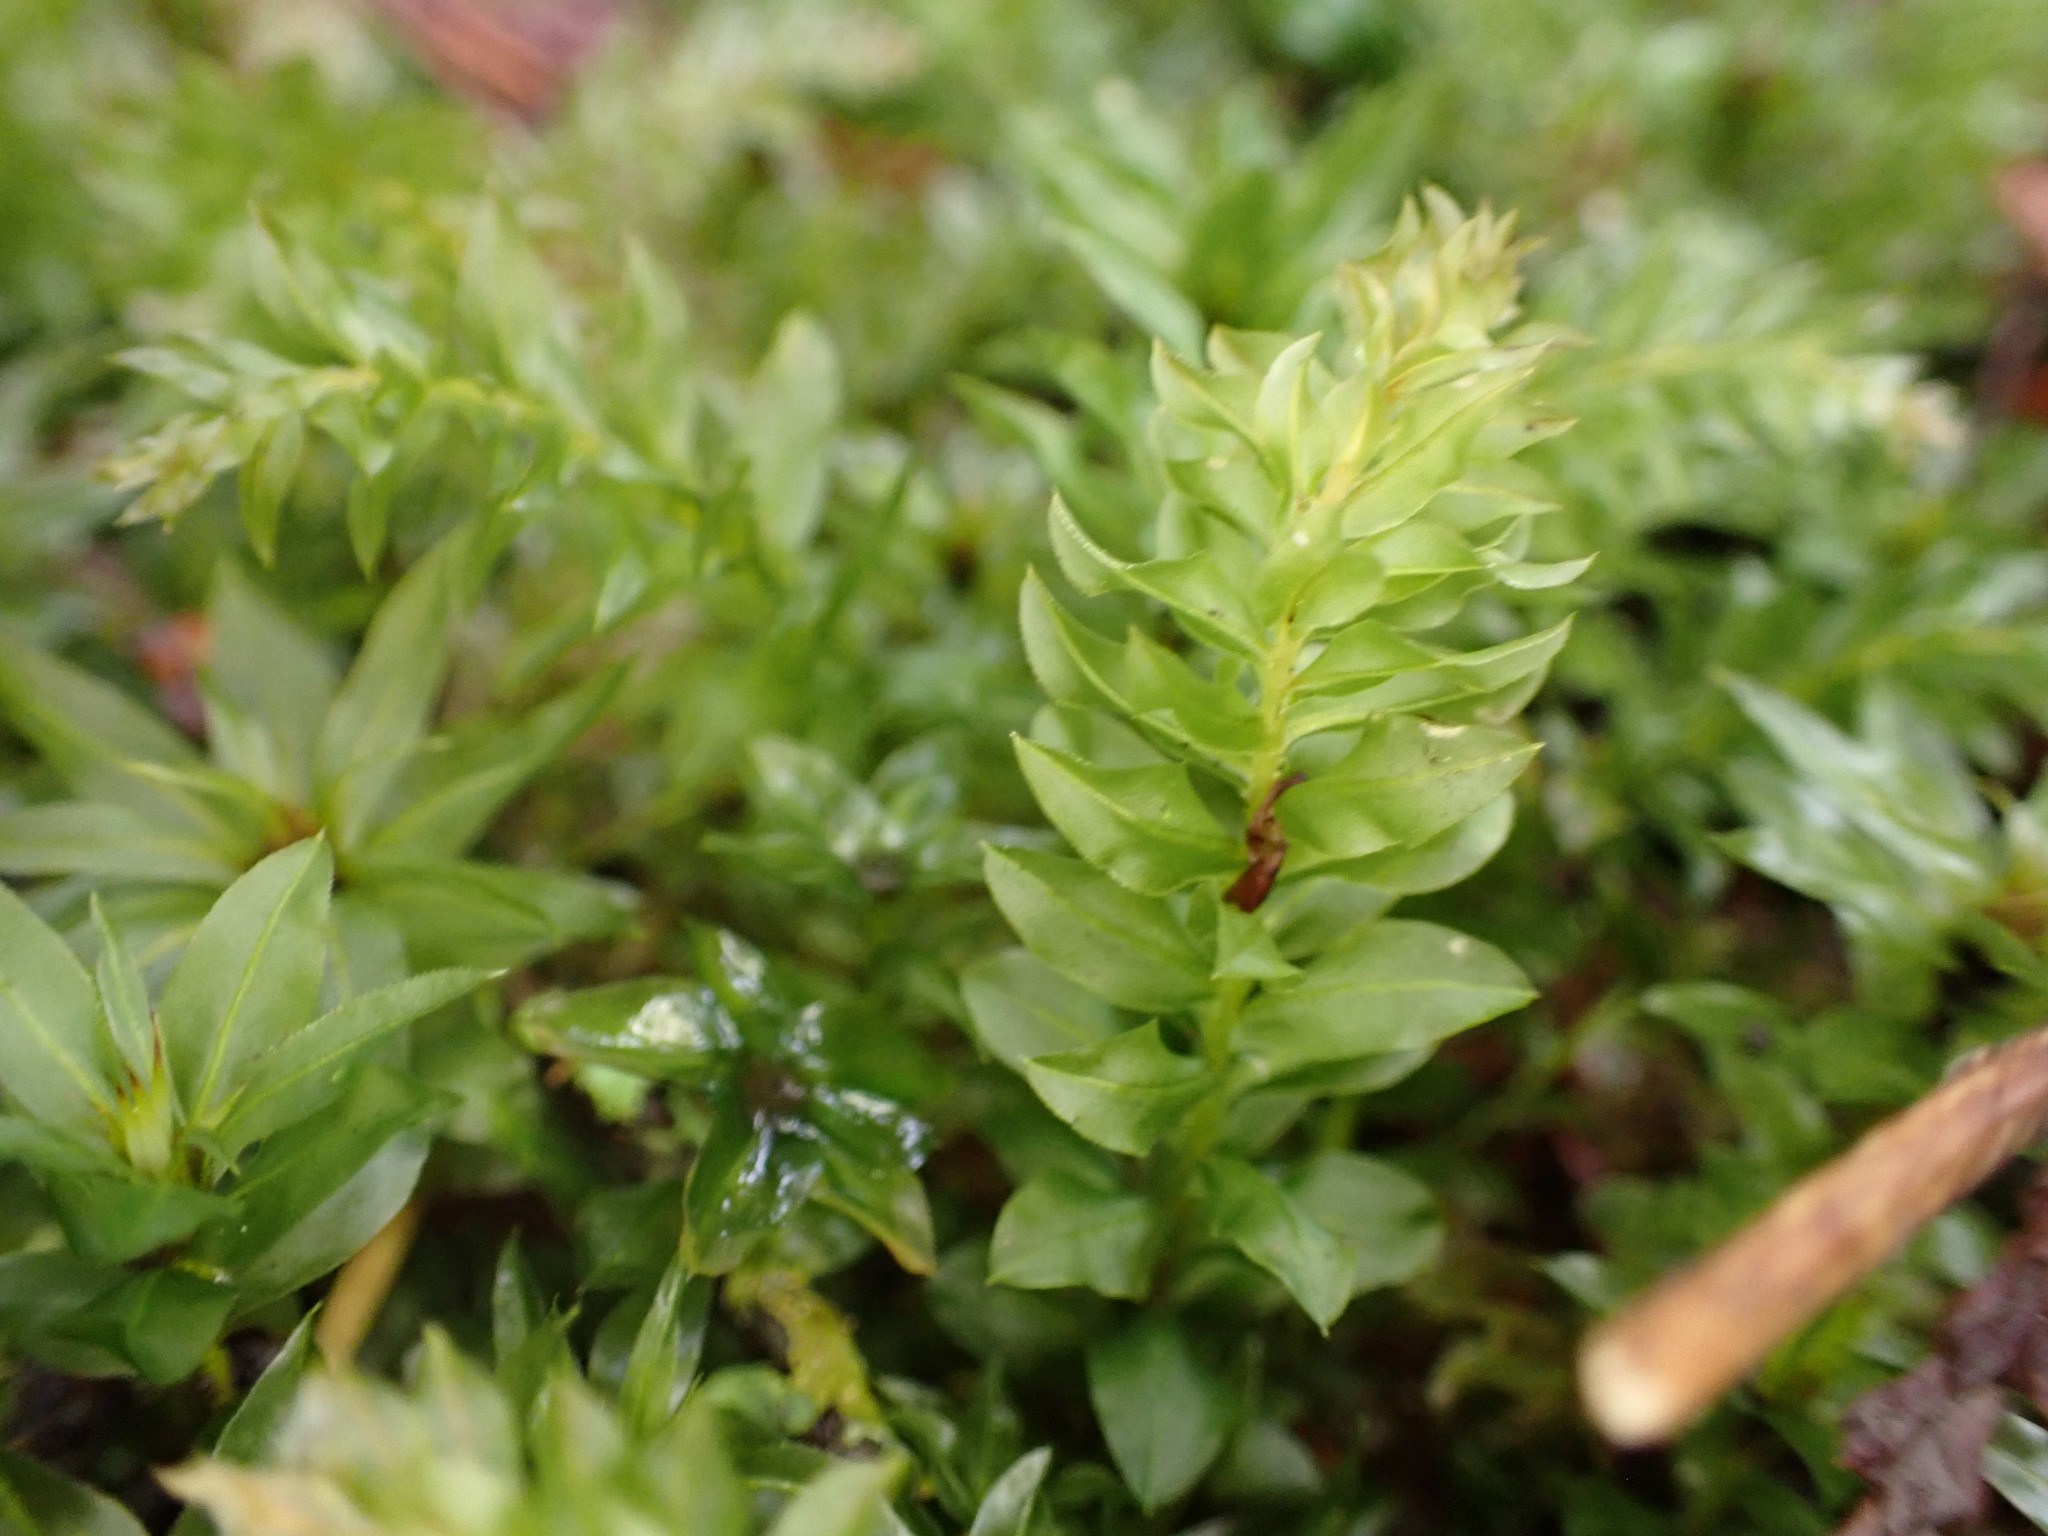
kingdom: Plantae
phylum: Bryophyta
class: Bryopsida
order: Bryales
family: Mniaceae
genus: Plagiomnium
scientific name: Plagiomnium insigne
